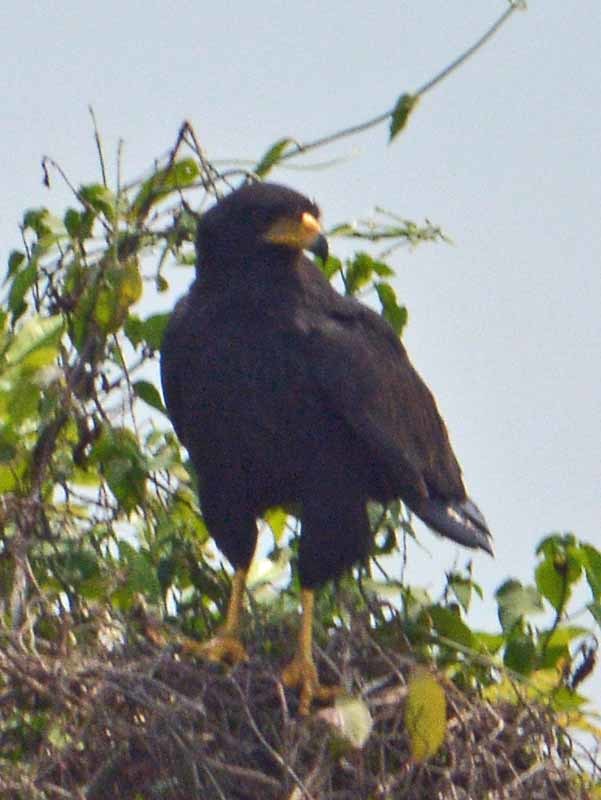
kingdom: Animalia
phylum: Chordata
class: Aves
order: Accipitriformes
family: Accipitridae
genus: Buteogallus
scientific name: Buteogallus anthracinus
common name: Common black hawk
